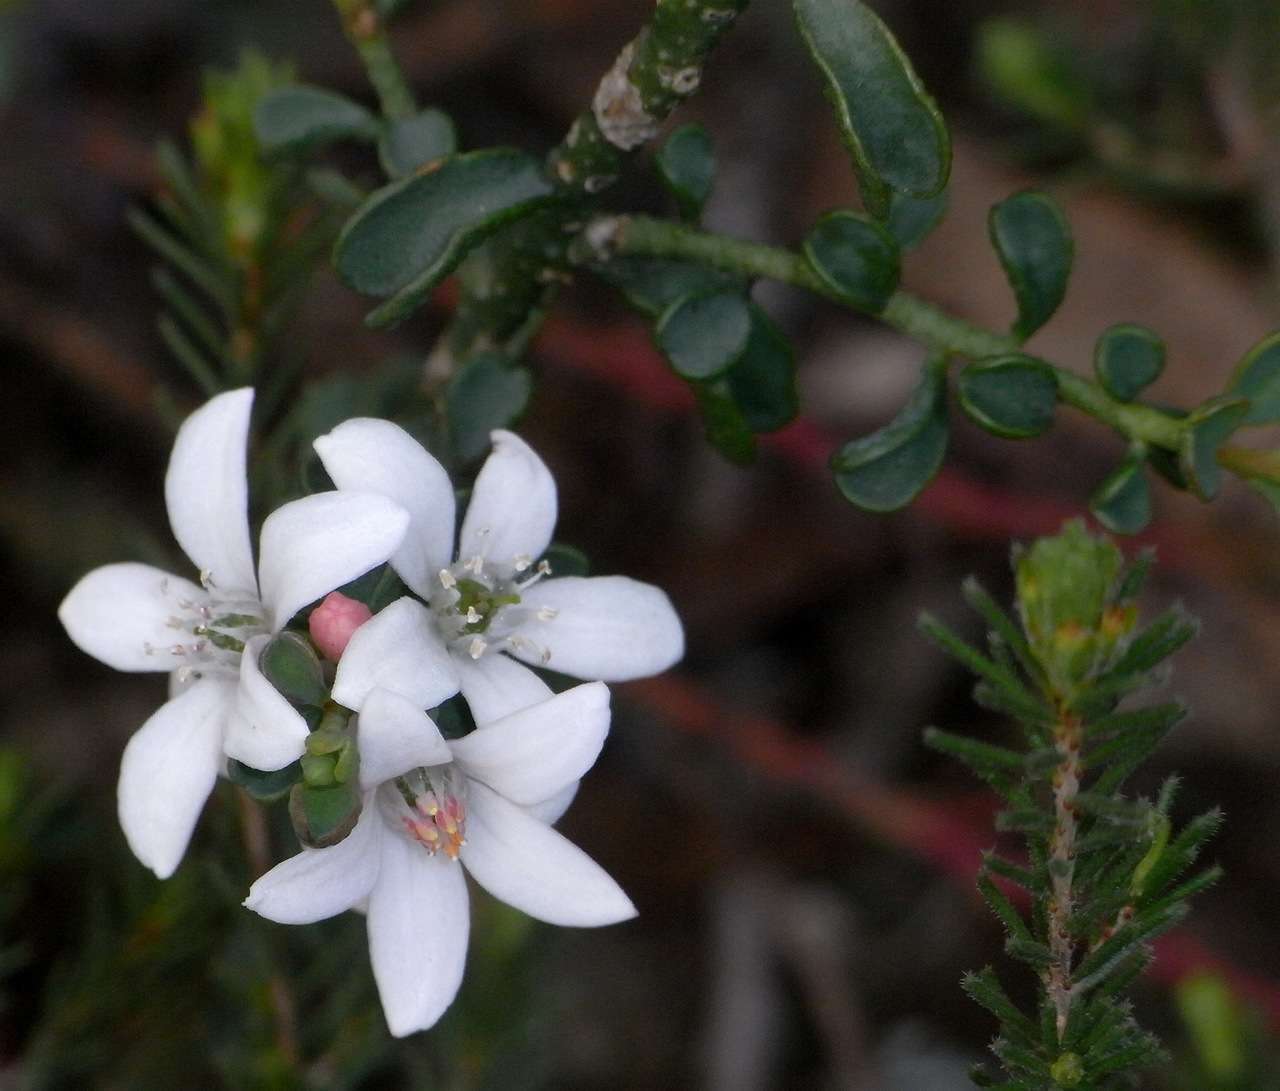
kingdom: Plantae
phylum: Tracheophyta
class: Magnoliopsida
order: Sapindales
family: Rutaceae
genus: Philotheca
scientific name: Philotheca verrucosa
